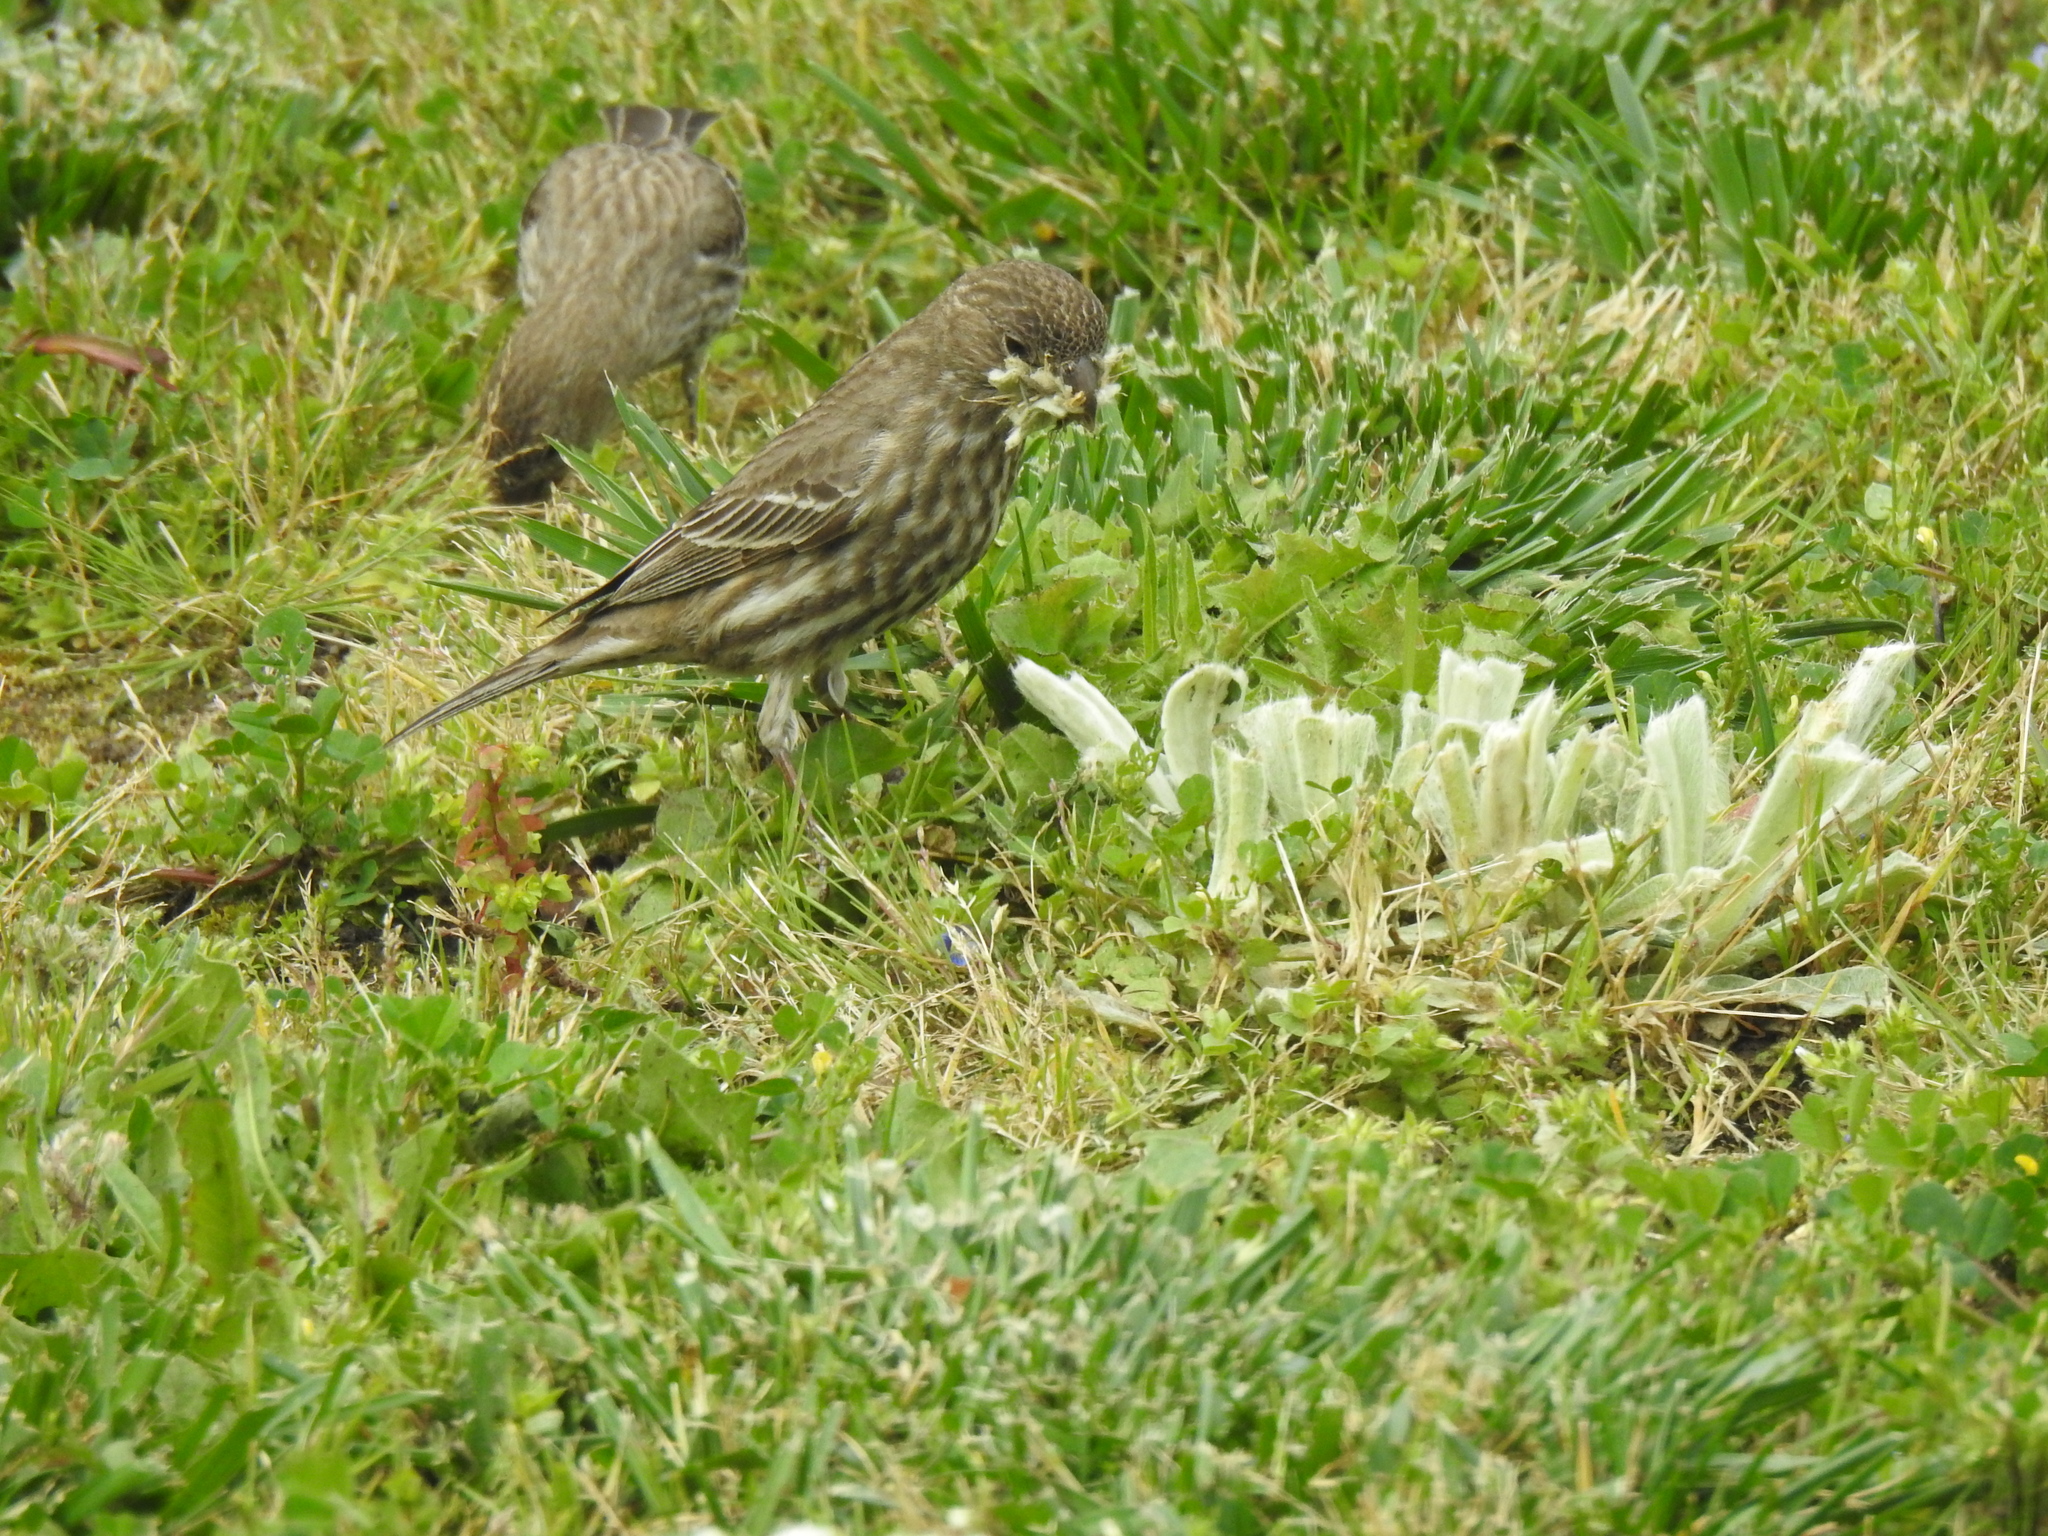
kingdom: Animalia
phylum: Chordata
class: Aves
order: Passeriformes
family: Fringillidae
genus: Haemorhous
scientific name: Haemorhous mexicanus
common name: House finch
